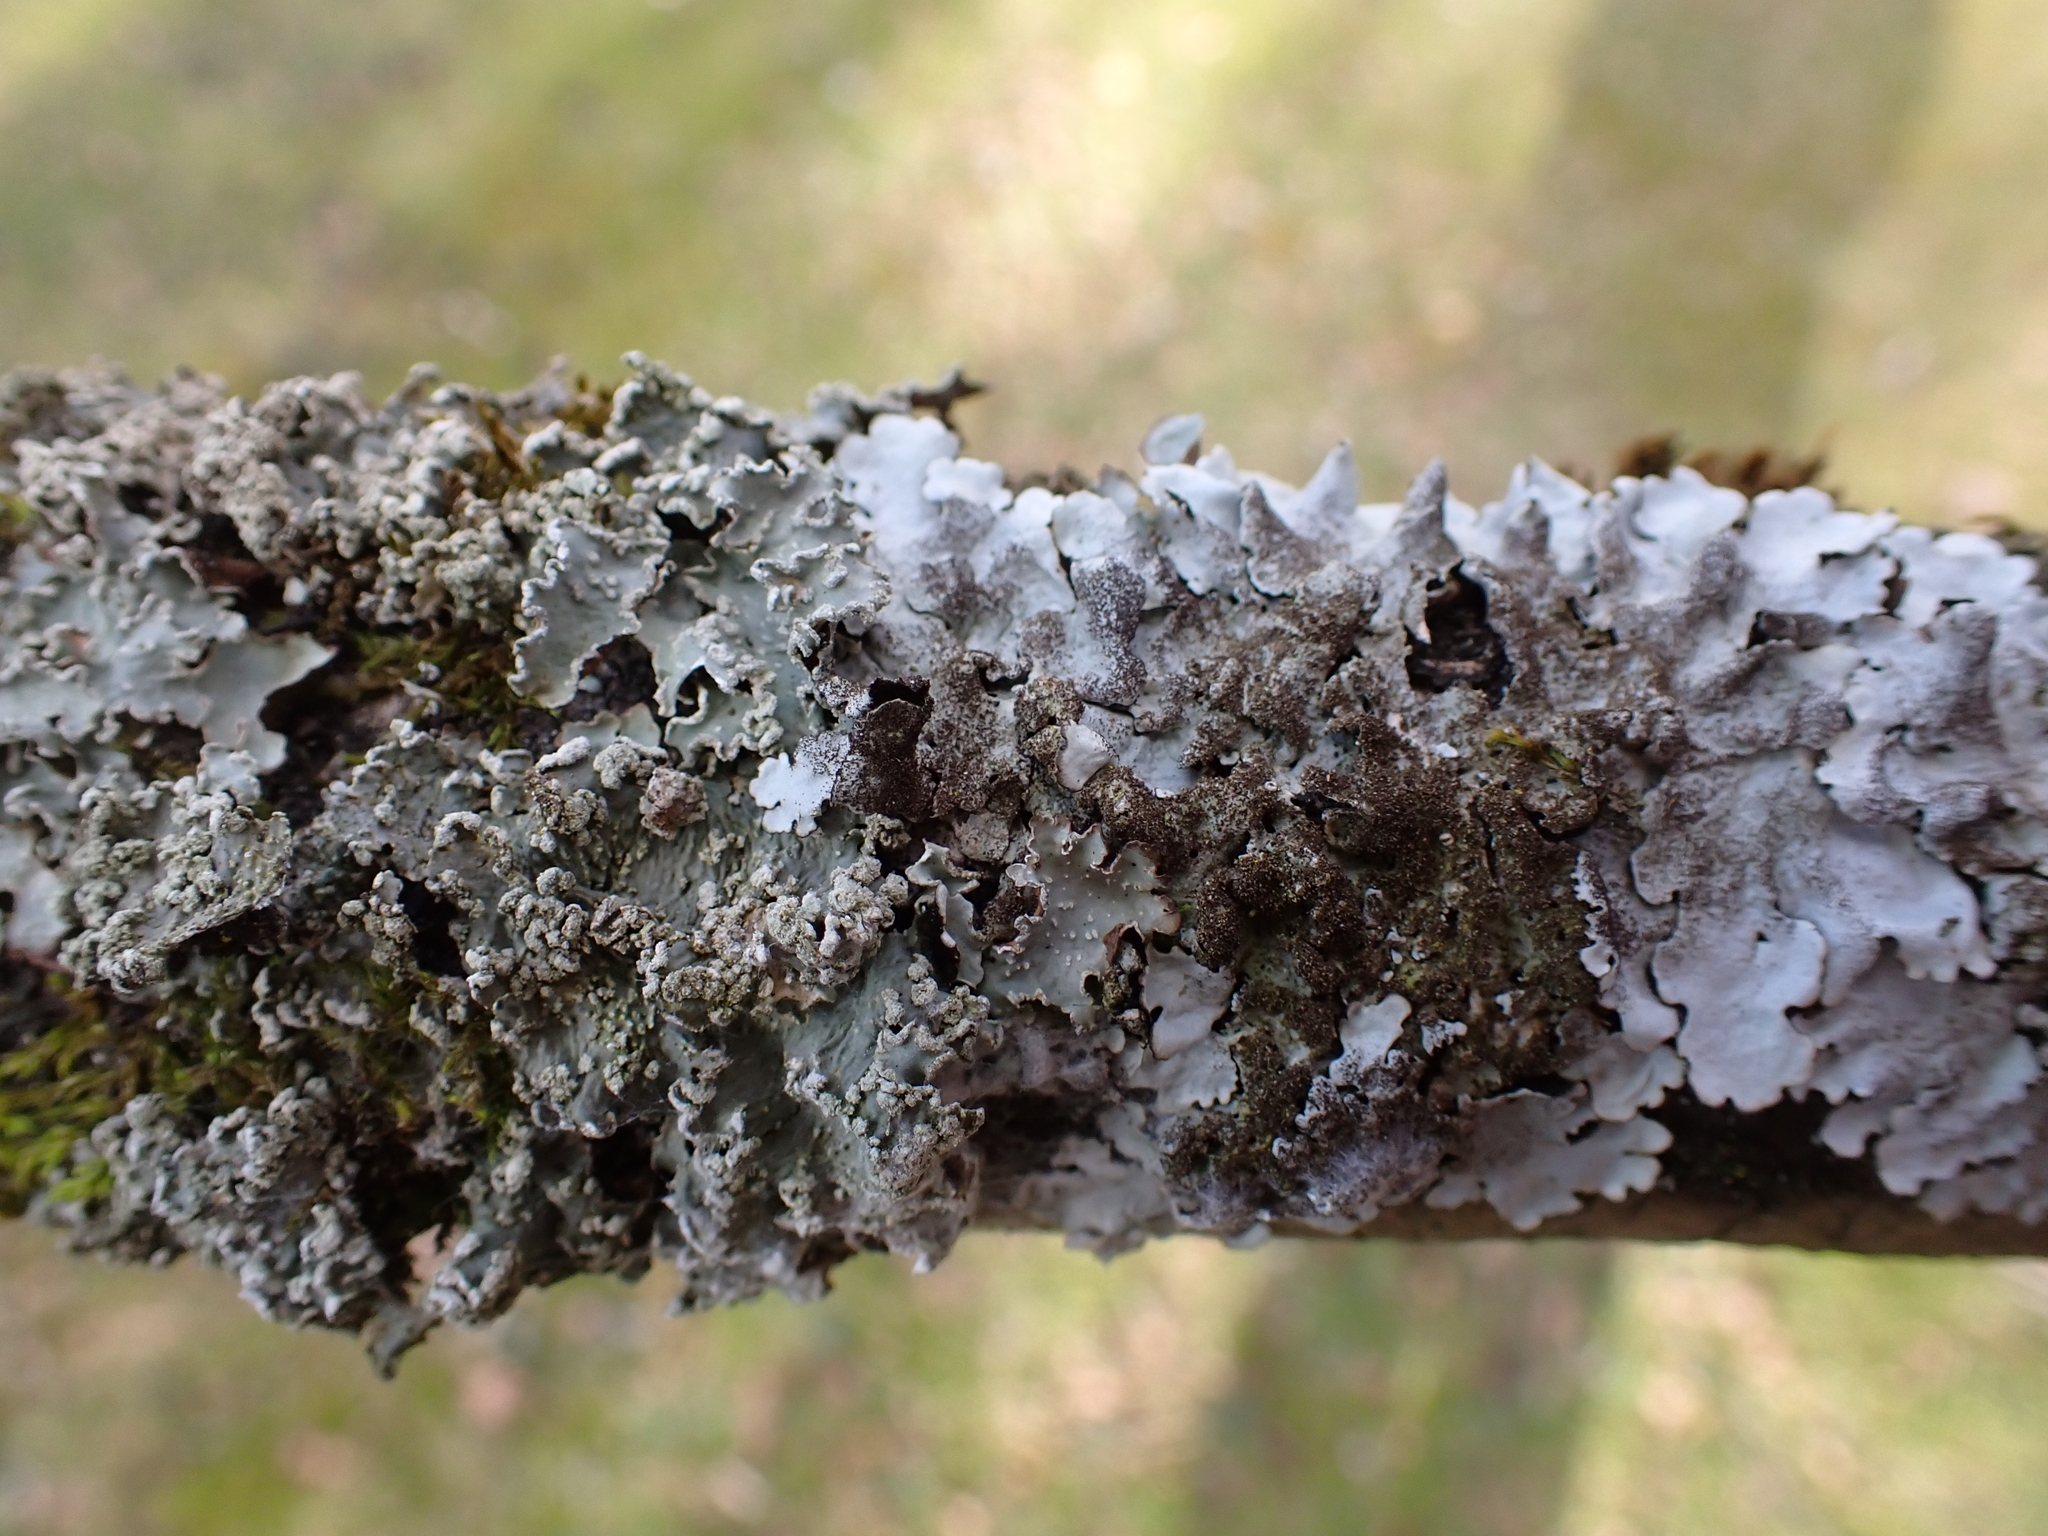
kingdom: Fungi
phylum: Ascomycota
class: Lecanoromycetes
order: Lecanorales
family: Parmeliaceae
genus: Parmelina
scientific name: Parmelina tiliacea
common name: Linden shield lichen
